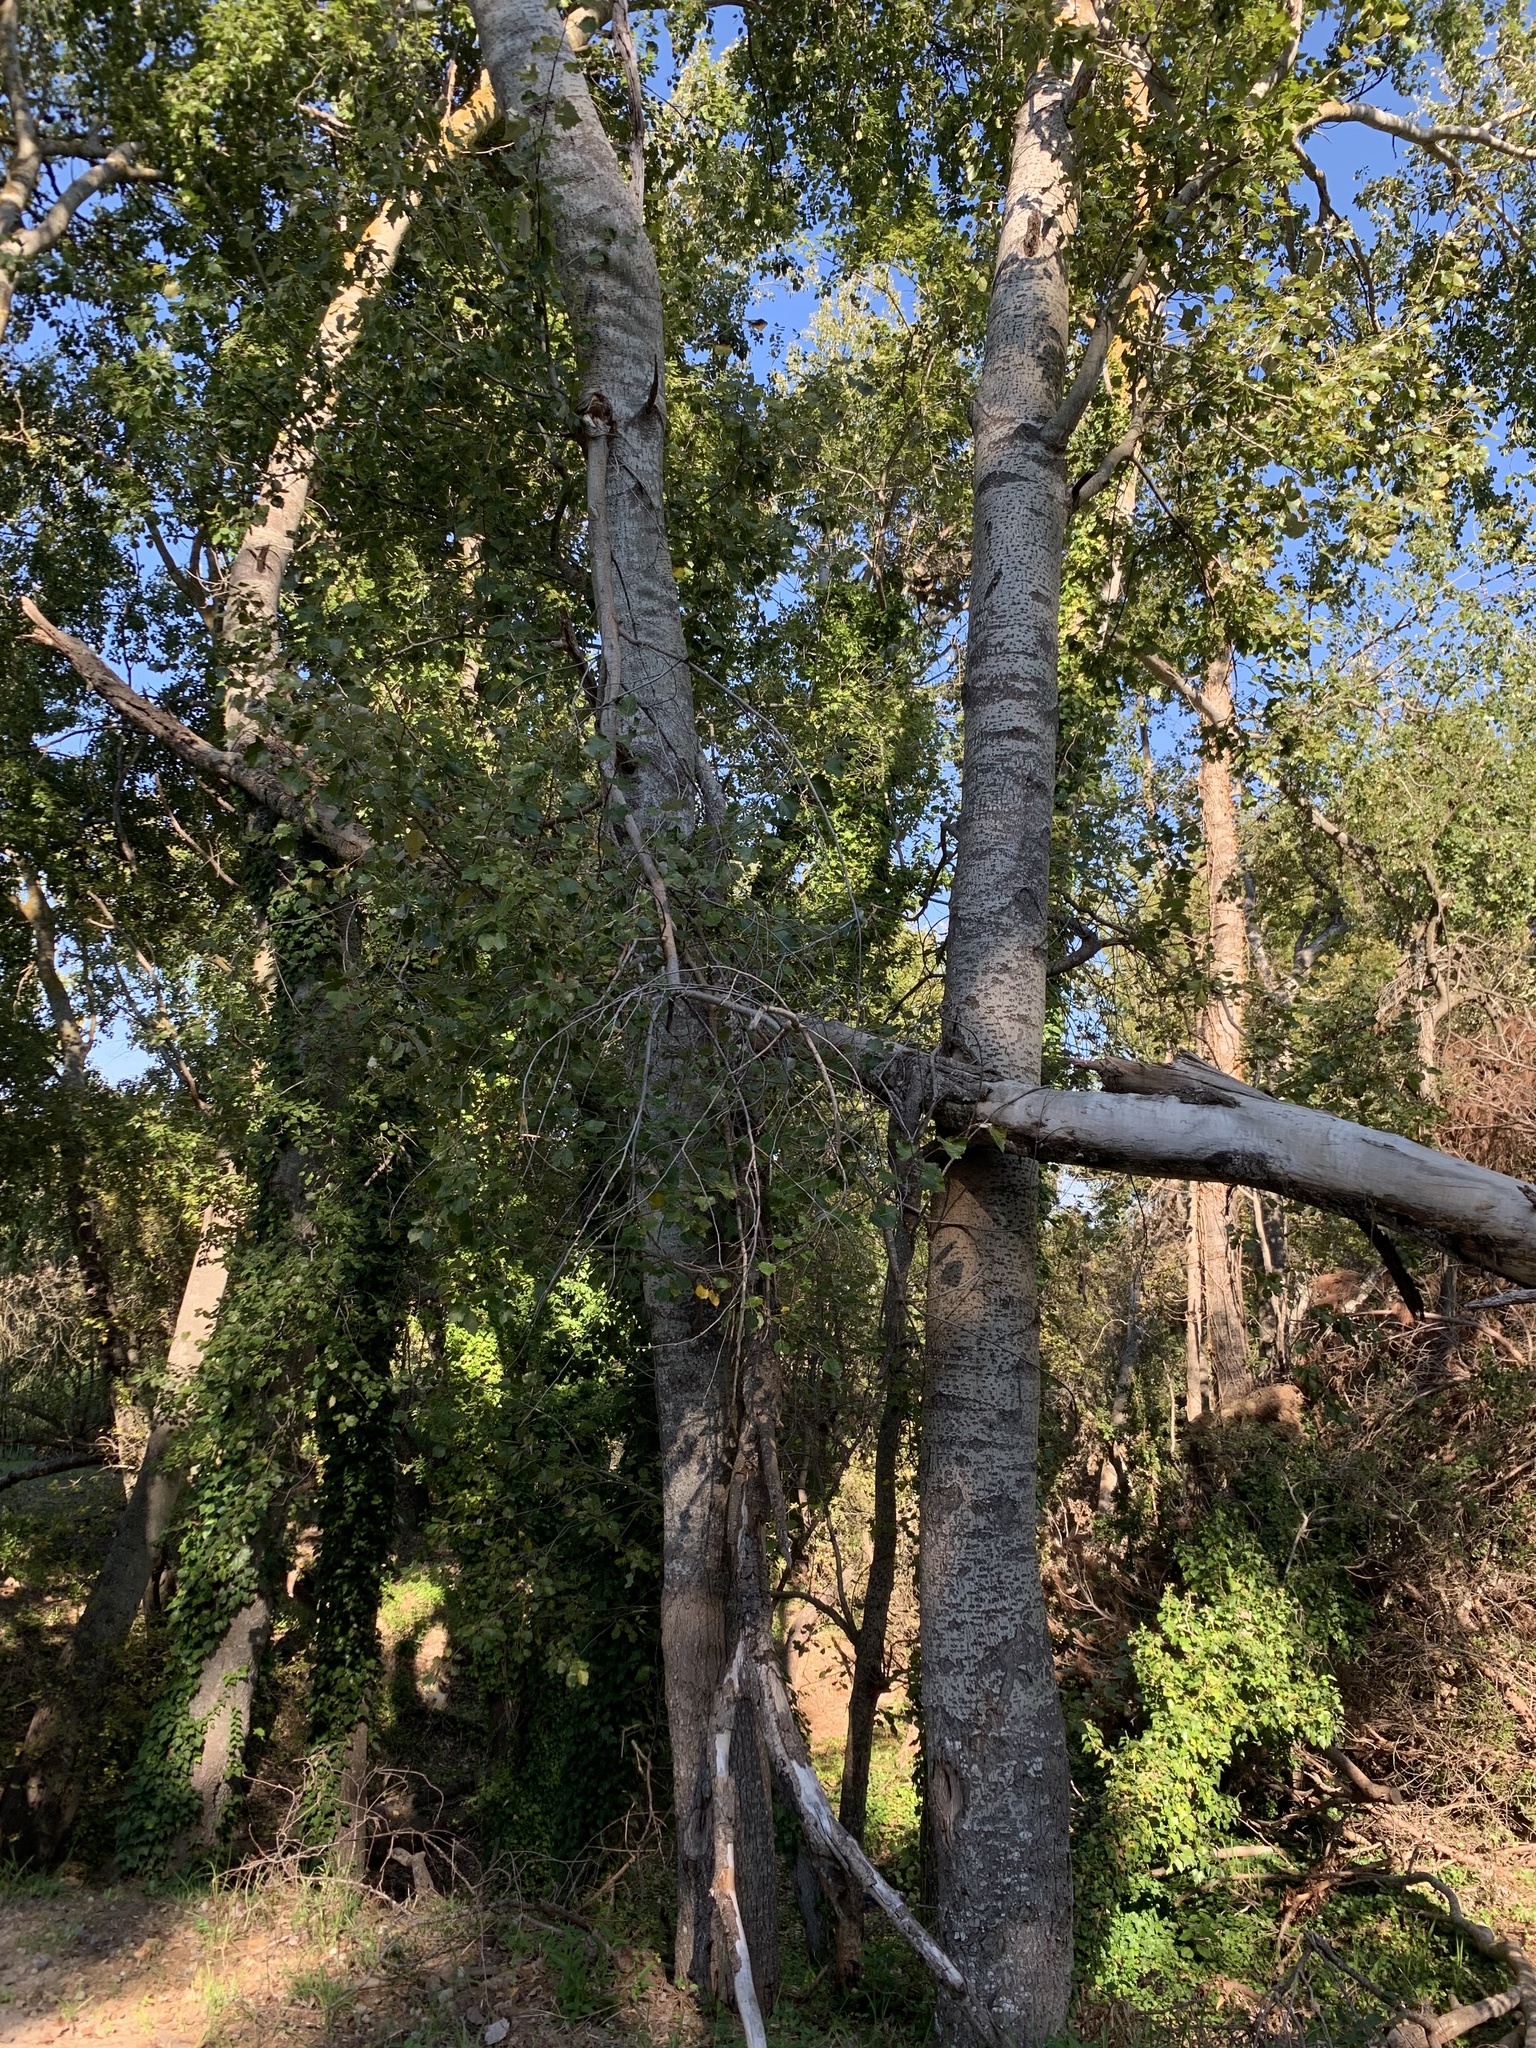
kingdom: Plantae
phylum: Tracheophyta
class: Magnoliopsida
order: Malpighiales
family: Salicaceae
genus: Populus
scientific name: Populus canescens
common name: Gray poplar
